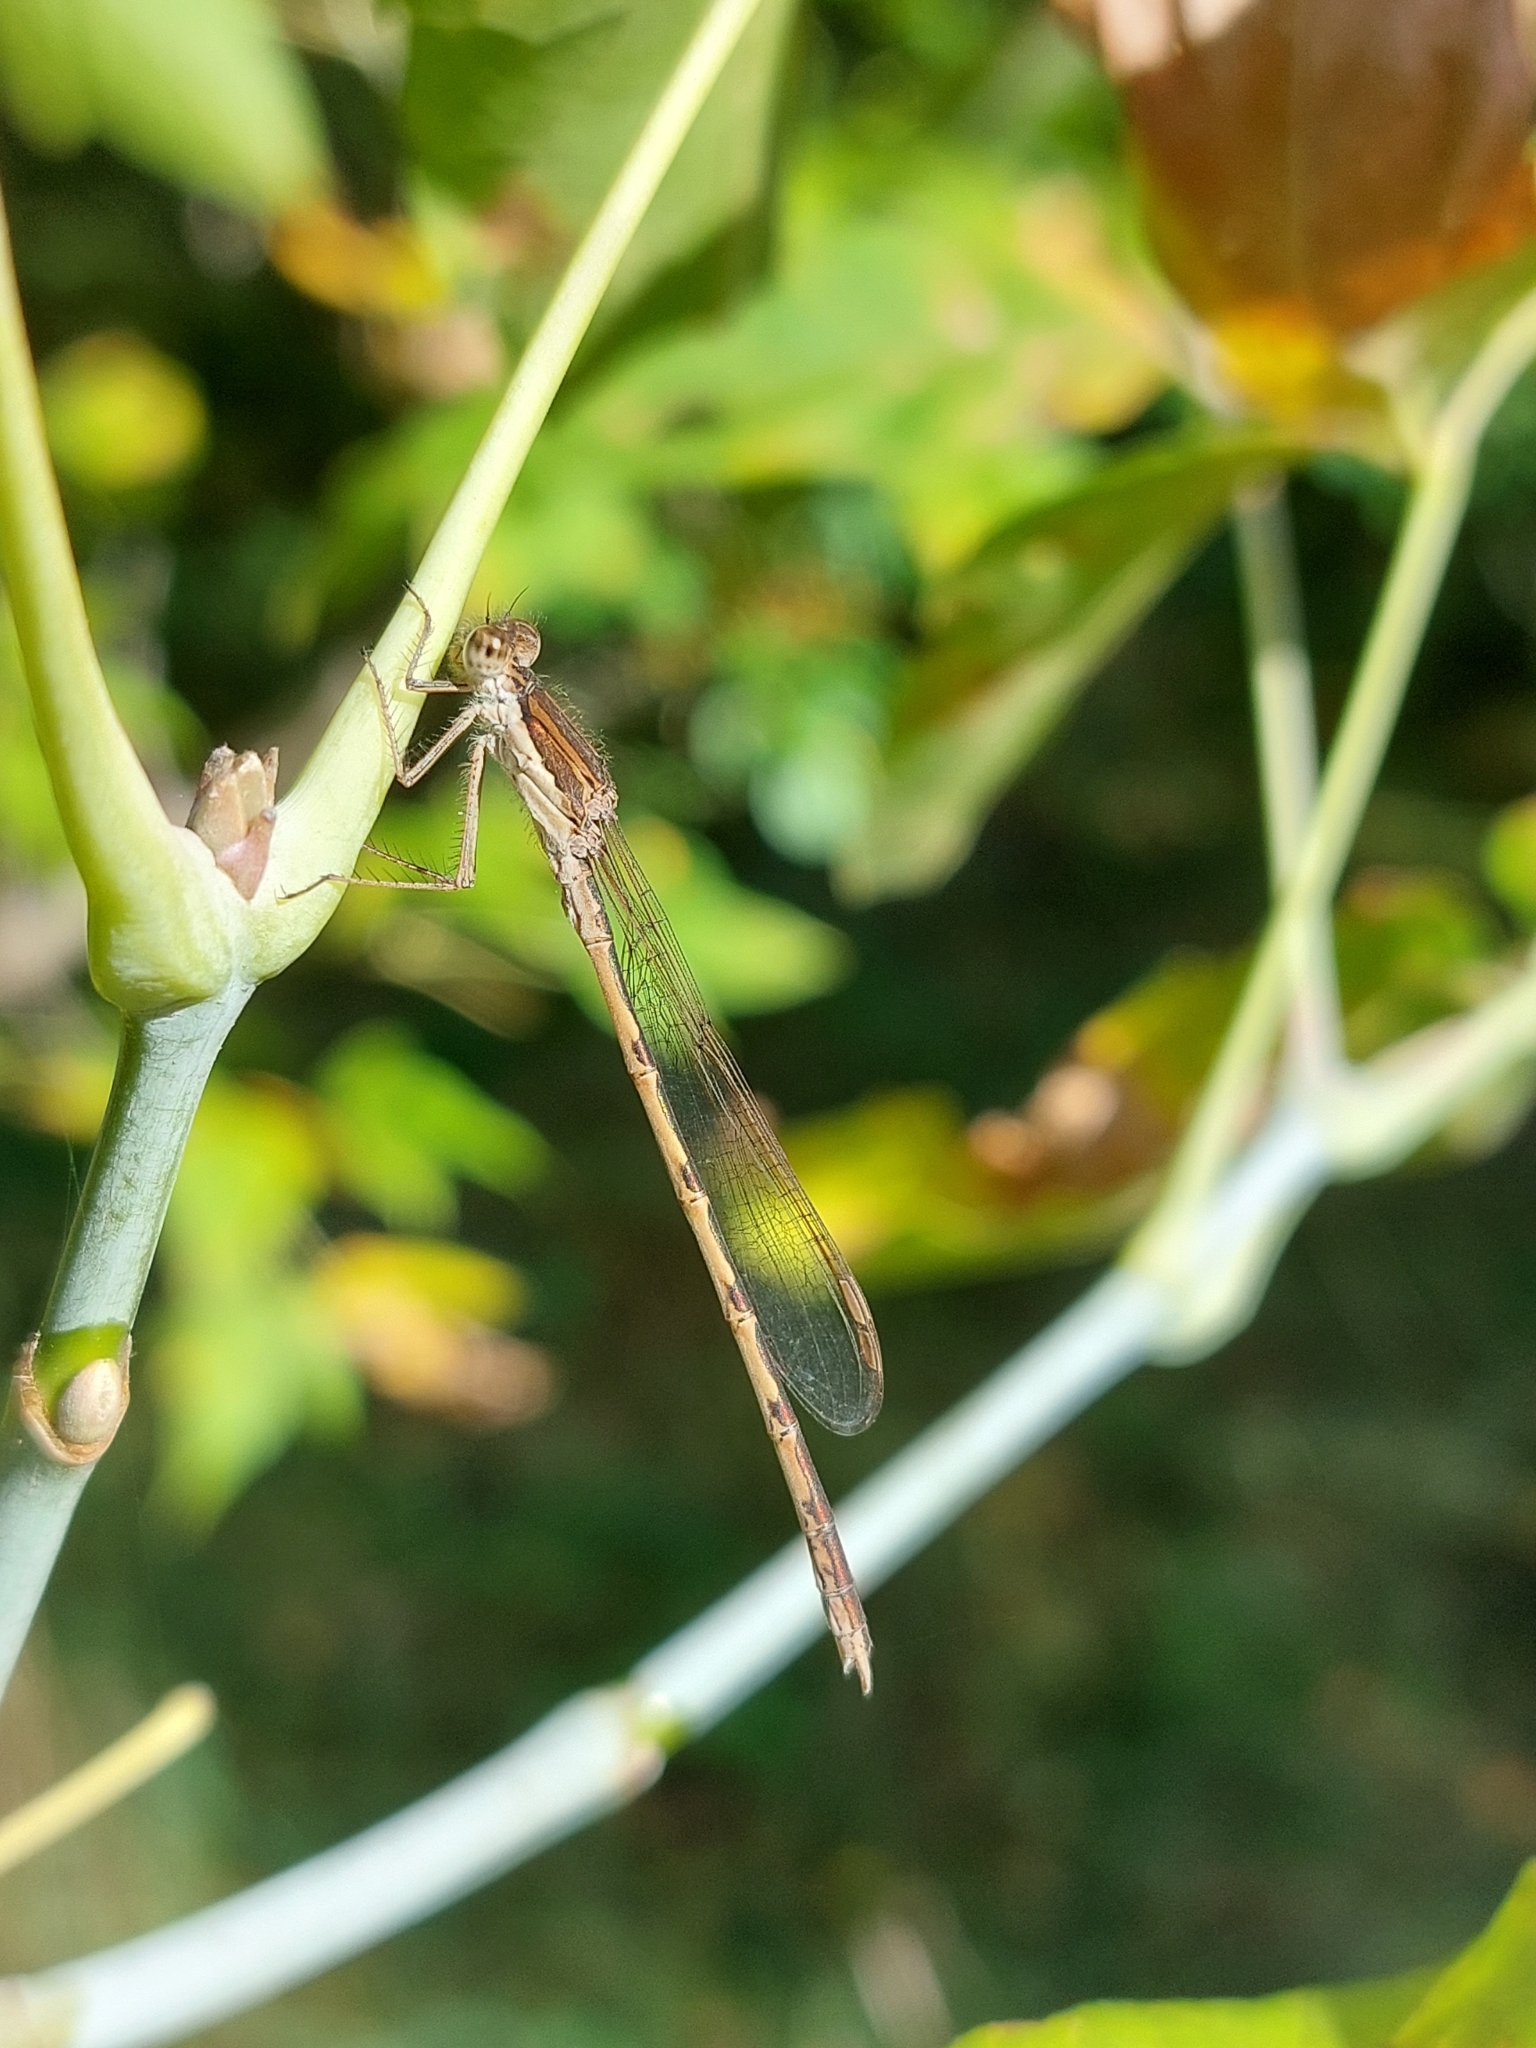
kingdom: Animalia
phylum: Arthropoda
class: Insecta
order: Odonata
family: Lestidae
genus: Sympecma
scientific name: Sympecma fusca
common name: Common winter damsel
